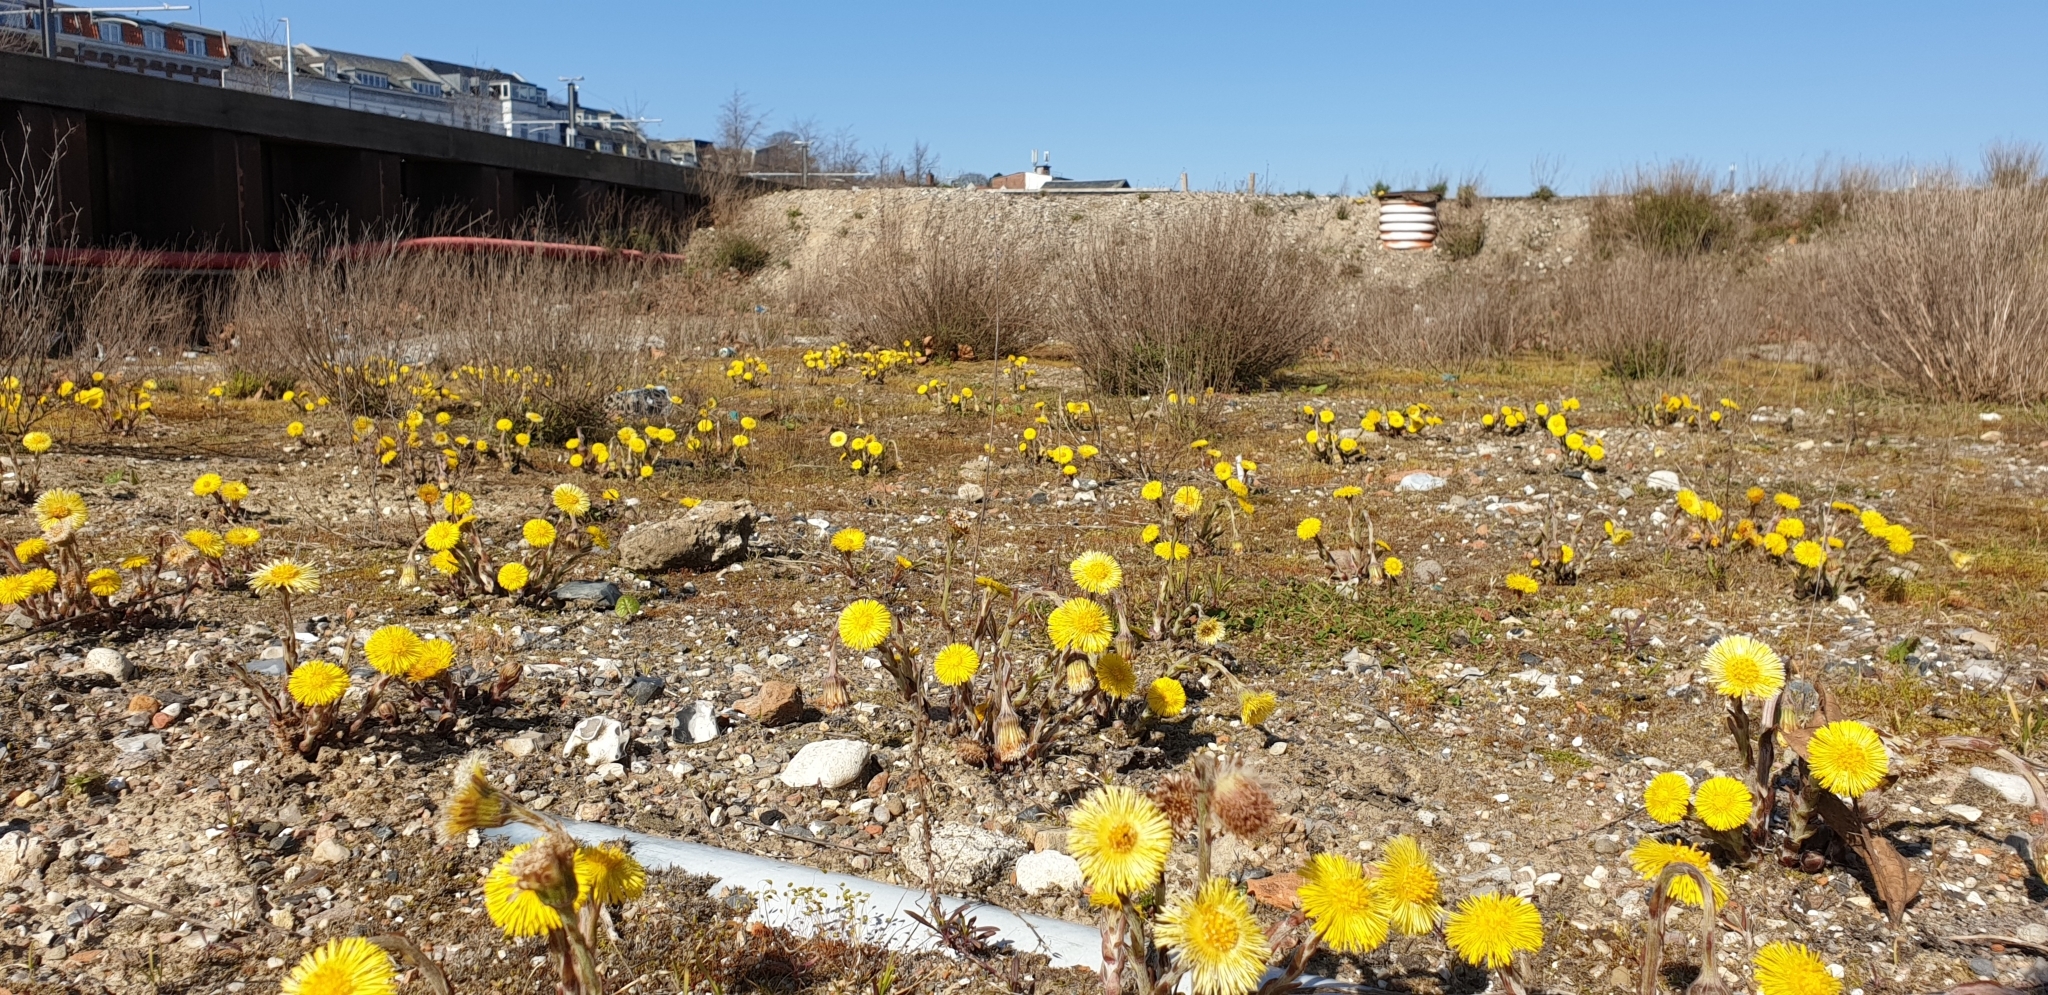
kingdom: Plantae
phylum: Tracheophyta
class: Magnoliopsida
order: Asterales
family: Asteraceae
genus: Tussilago
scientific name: Tussilago farfara
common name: Coltsfoot
